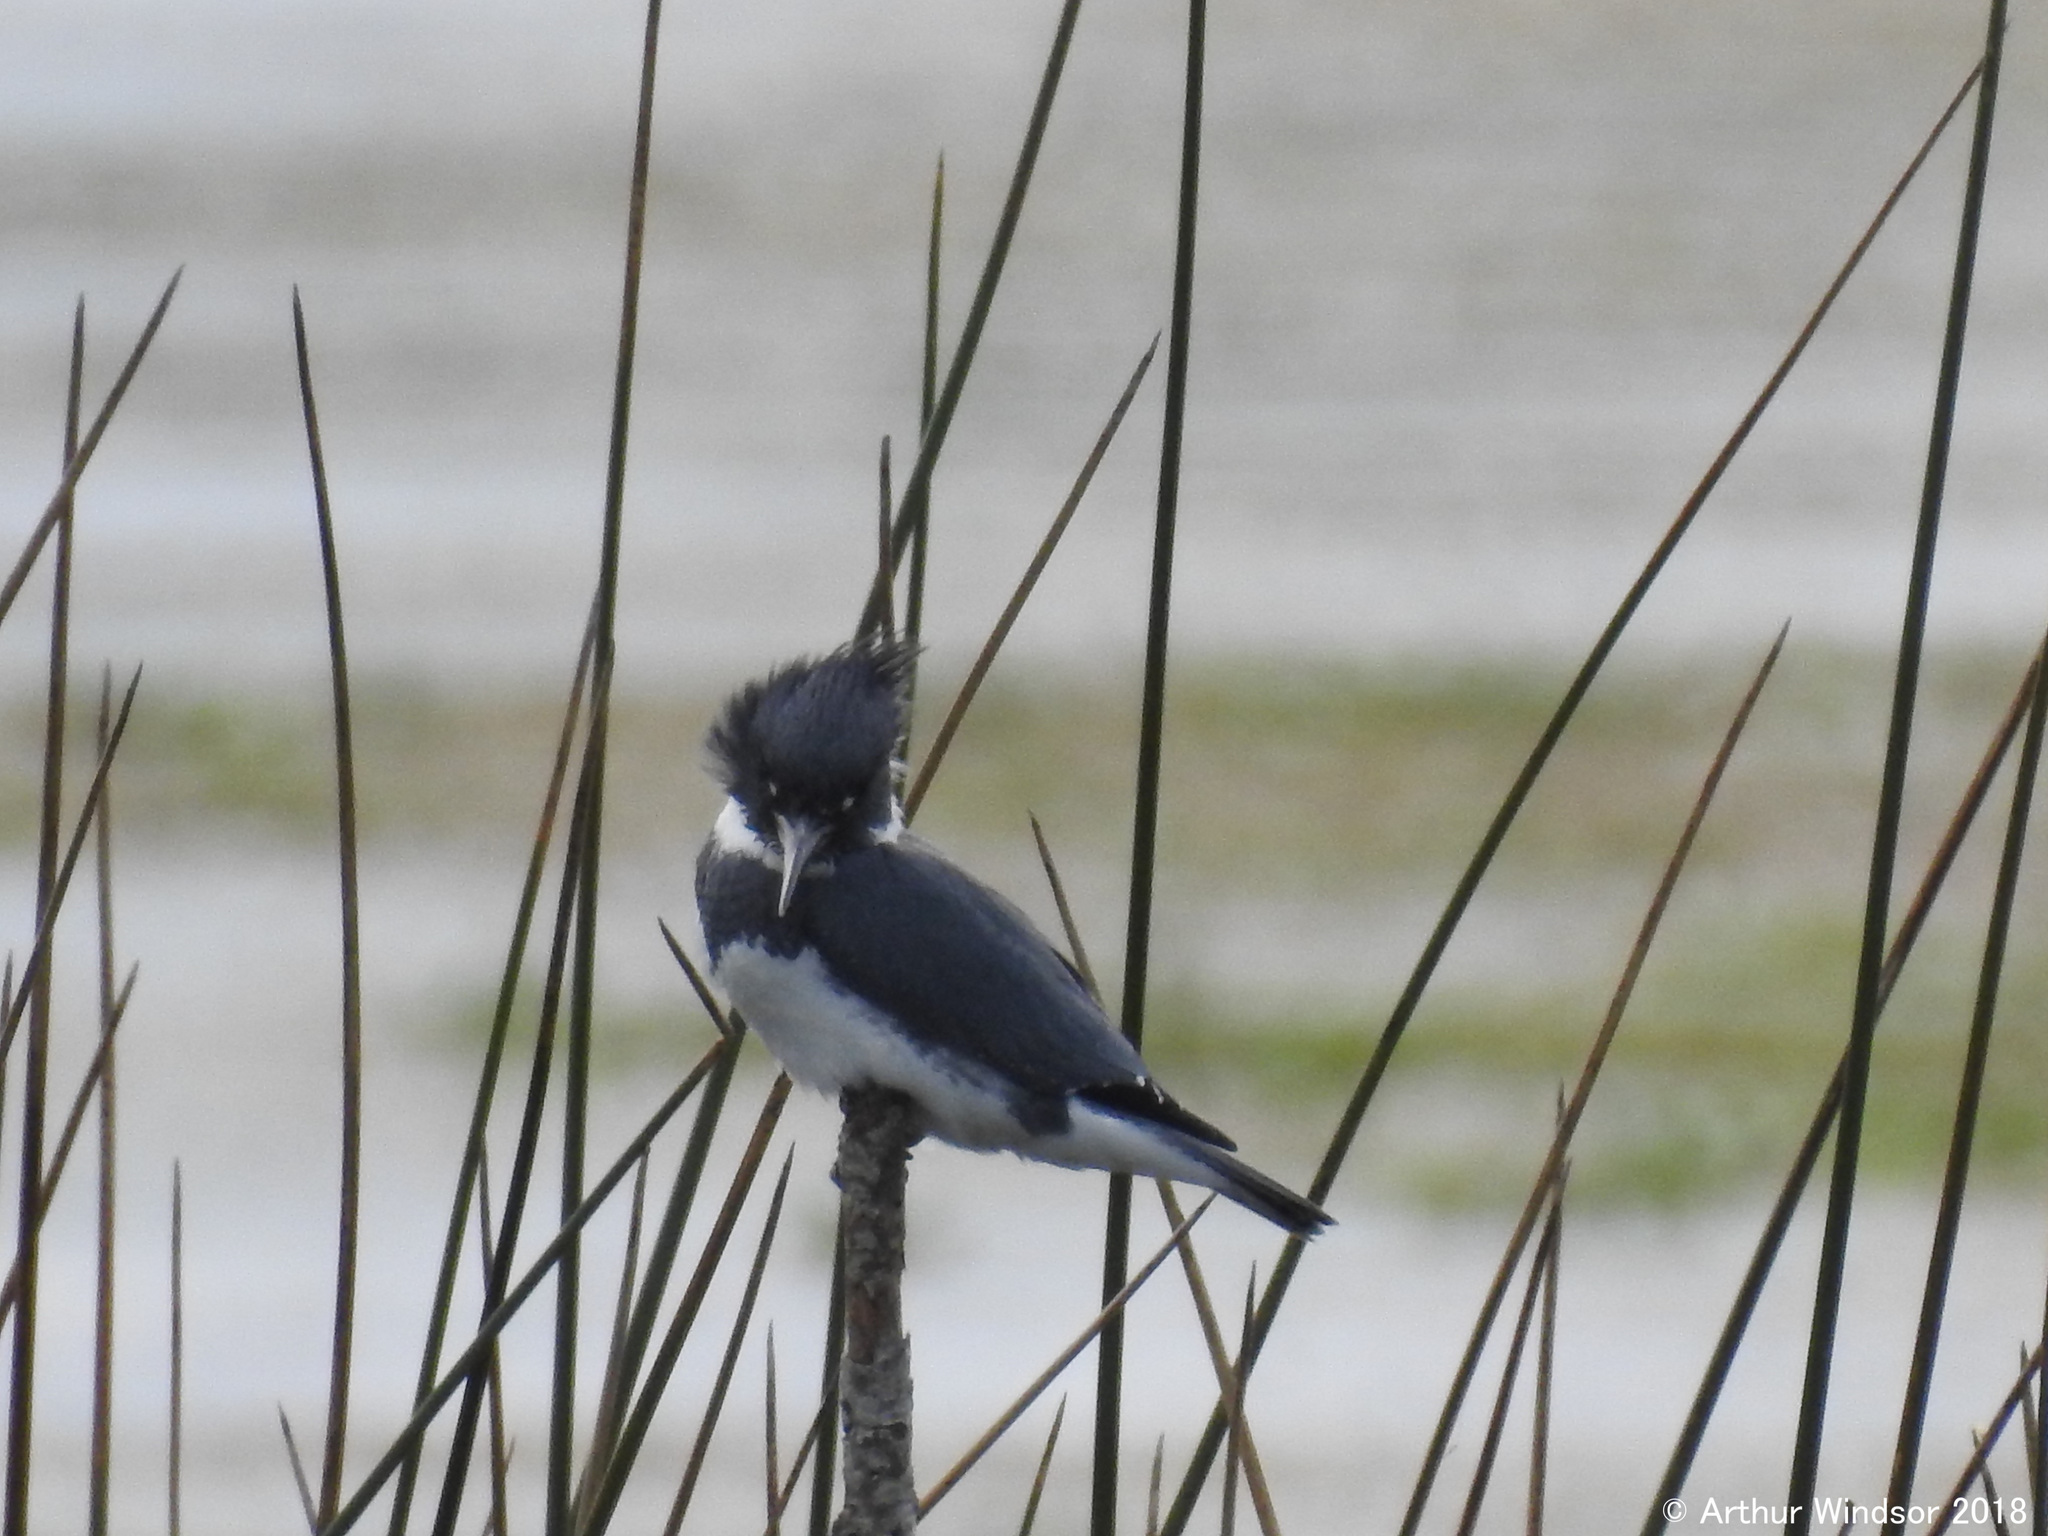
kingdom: Animalia
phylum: Chordata
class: Aves
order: Coraciiformes
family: Alcedinidae
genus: Megaceryle
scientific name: Megaceryle alcyon
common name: Belted kingfisher
